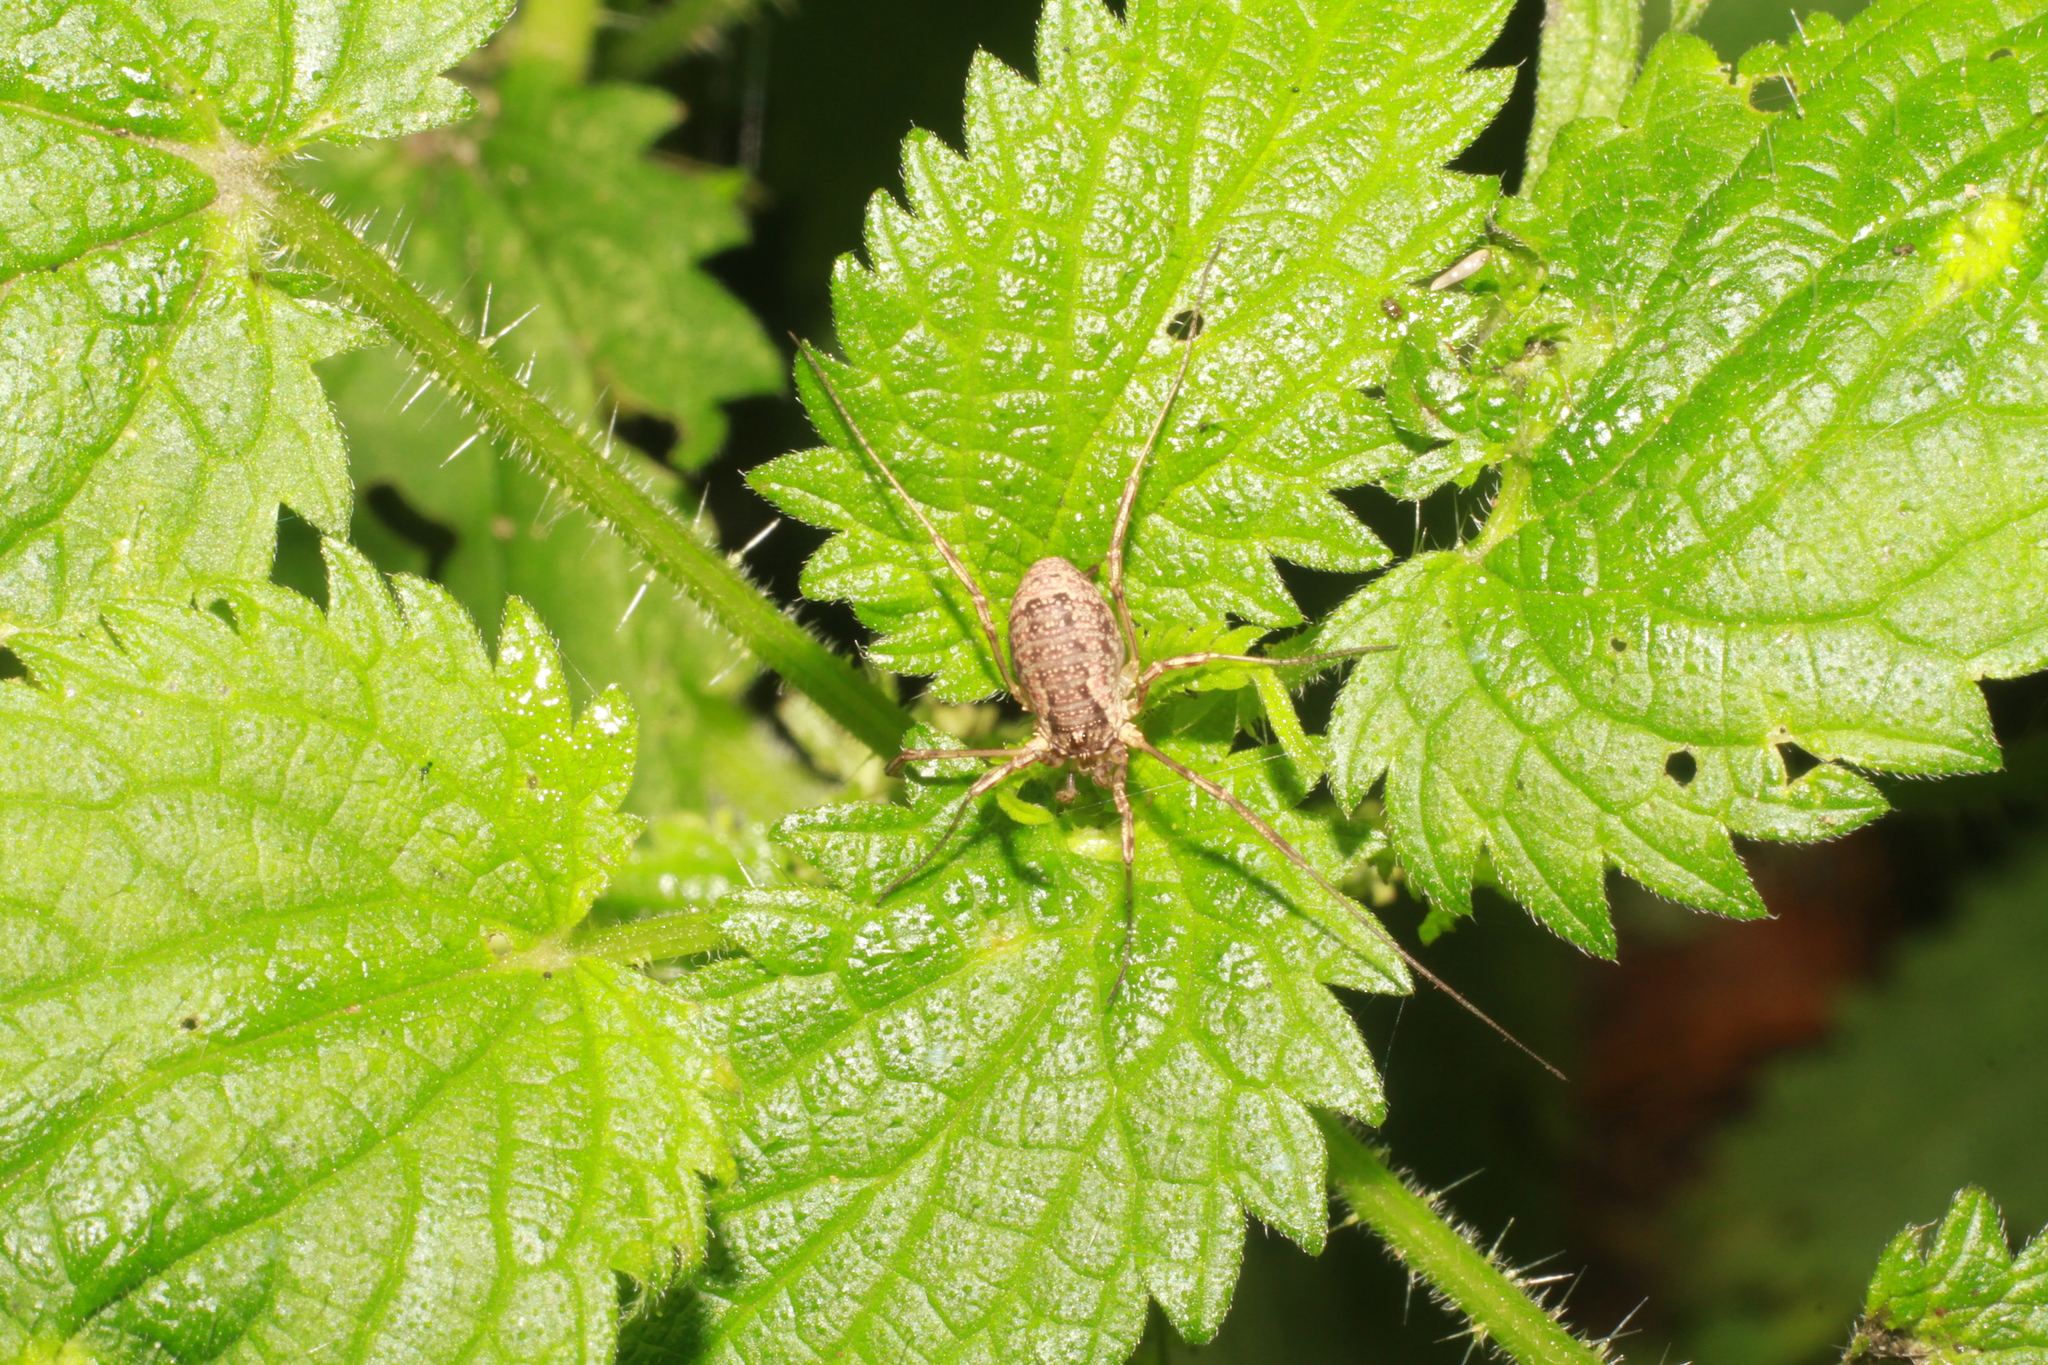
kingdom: Animalia
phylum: Arthropoda
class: Arachnida
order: Opiliones
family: Phalangiidae
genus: Oligolophus
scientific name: Oligolophus tridens
